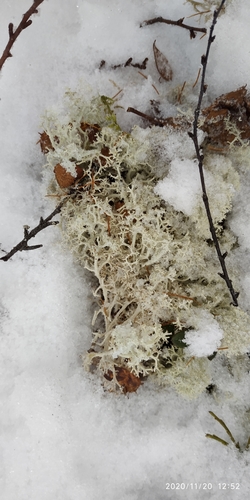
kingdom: Fungi
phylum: Ascomycota
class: Lecanoromycetes
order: Lecanorales
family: Cladoniaceae
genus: Cladonia
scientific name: Cladonia portentosa
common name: Reindeer lichen
